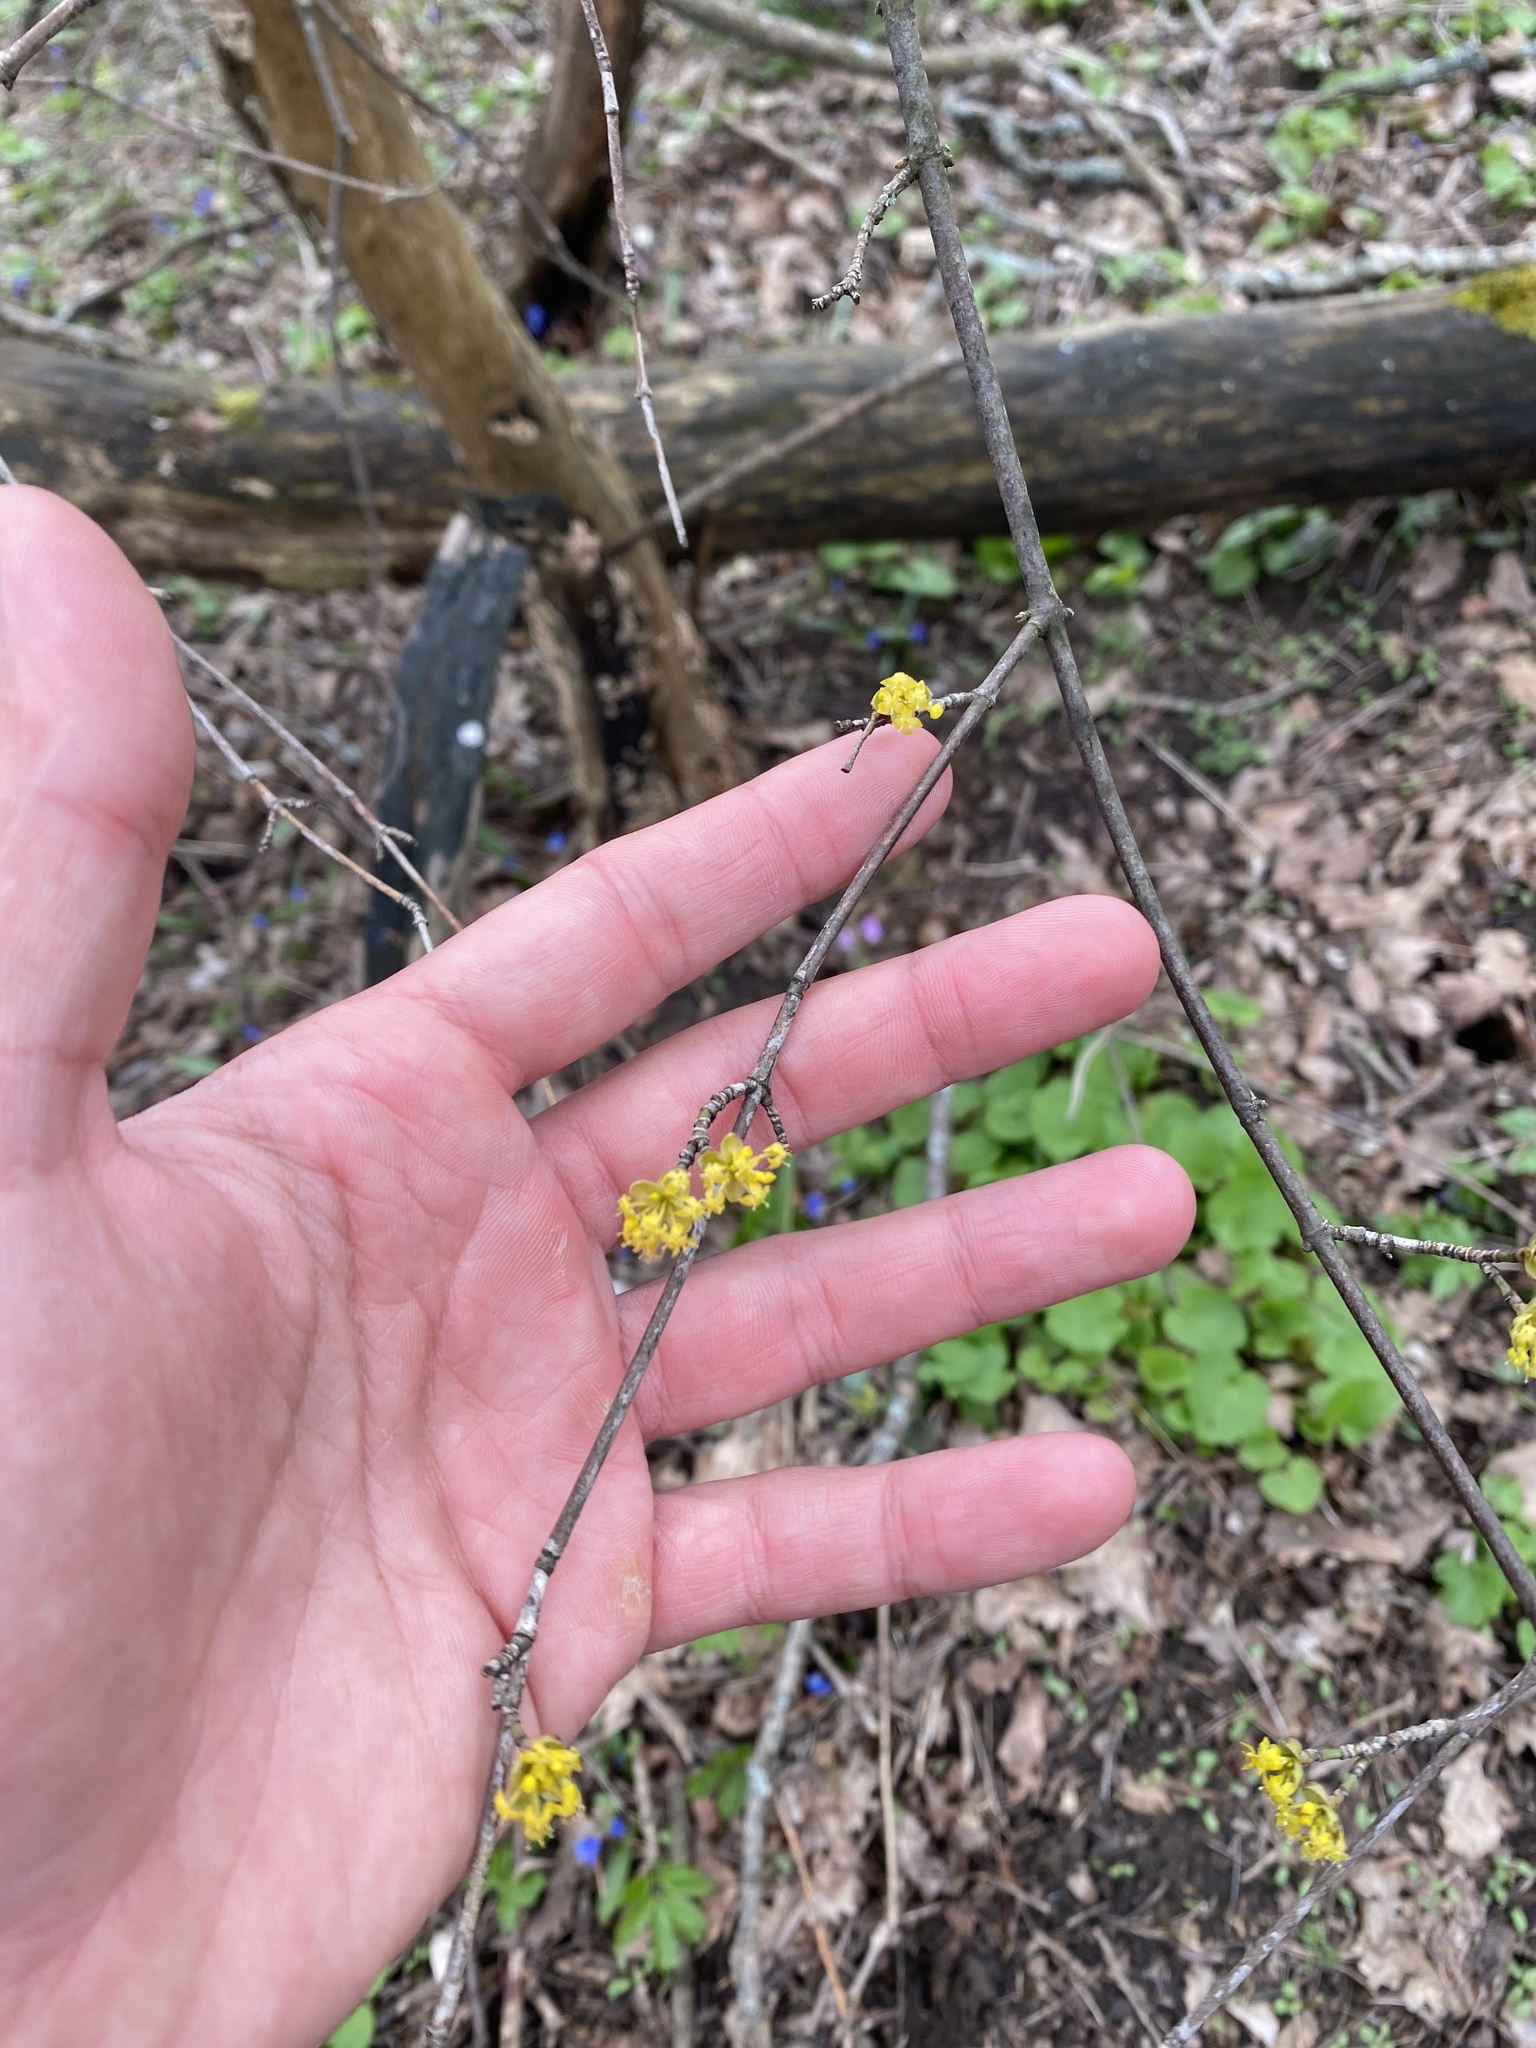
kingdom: Plantae
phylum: Tracheophyta
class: Magnoliopsida
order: Cornales
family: Cornaceae
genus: Cornus
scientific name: Cornus mas
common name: Cornelian-cherry
